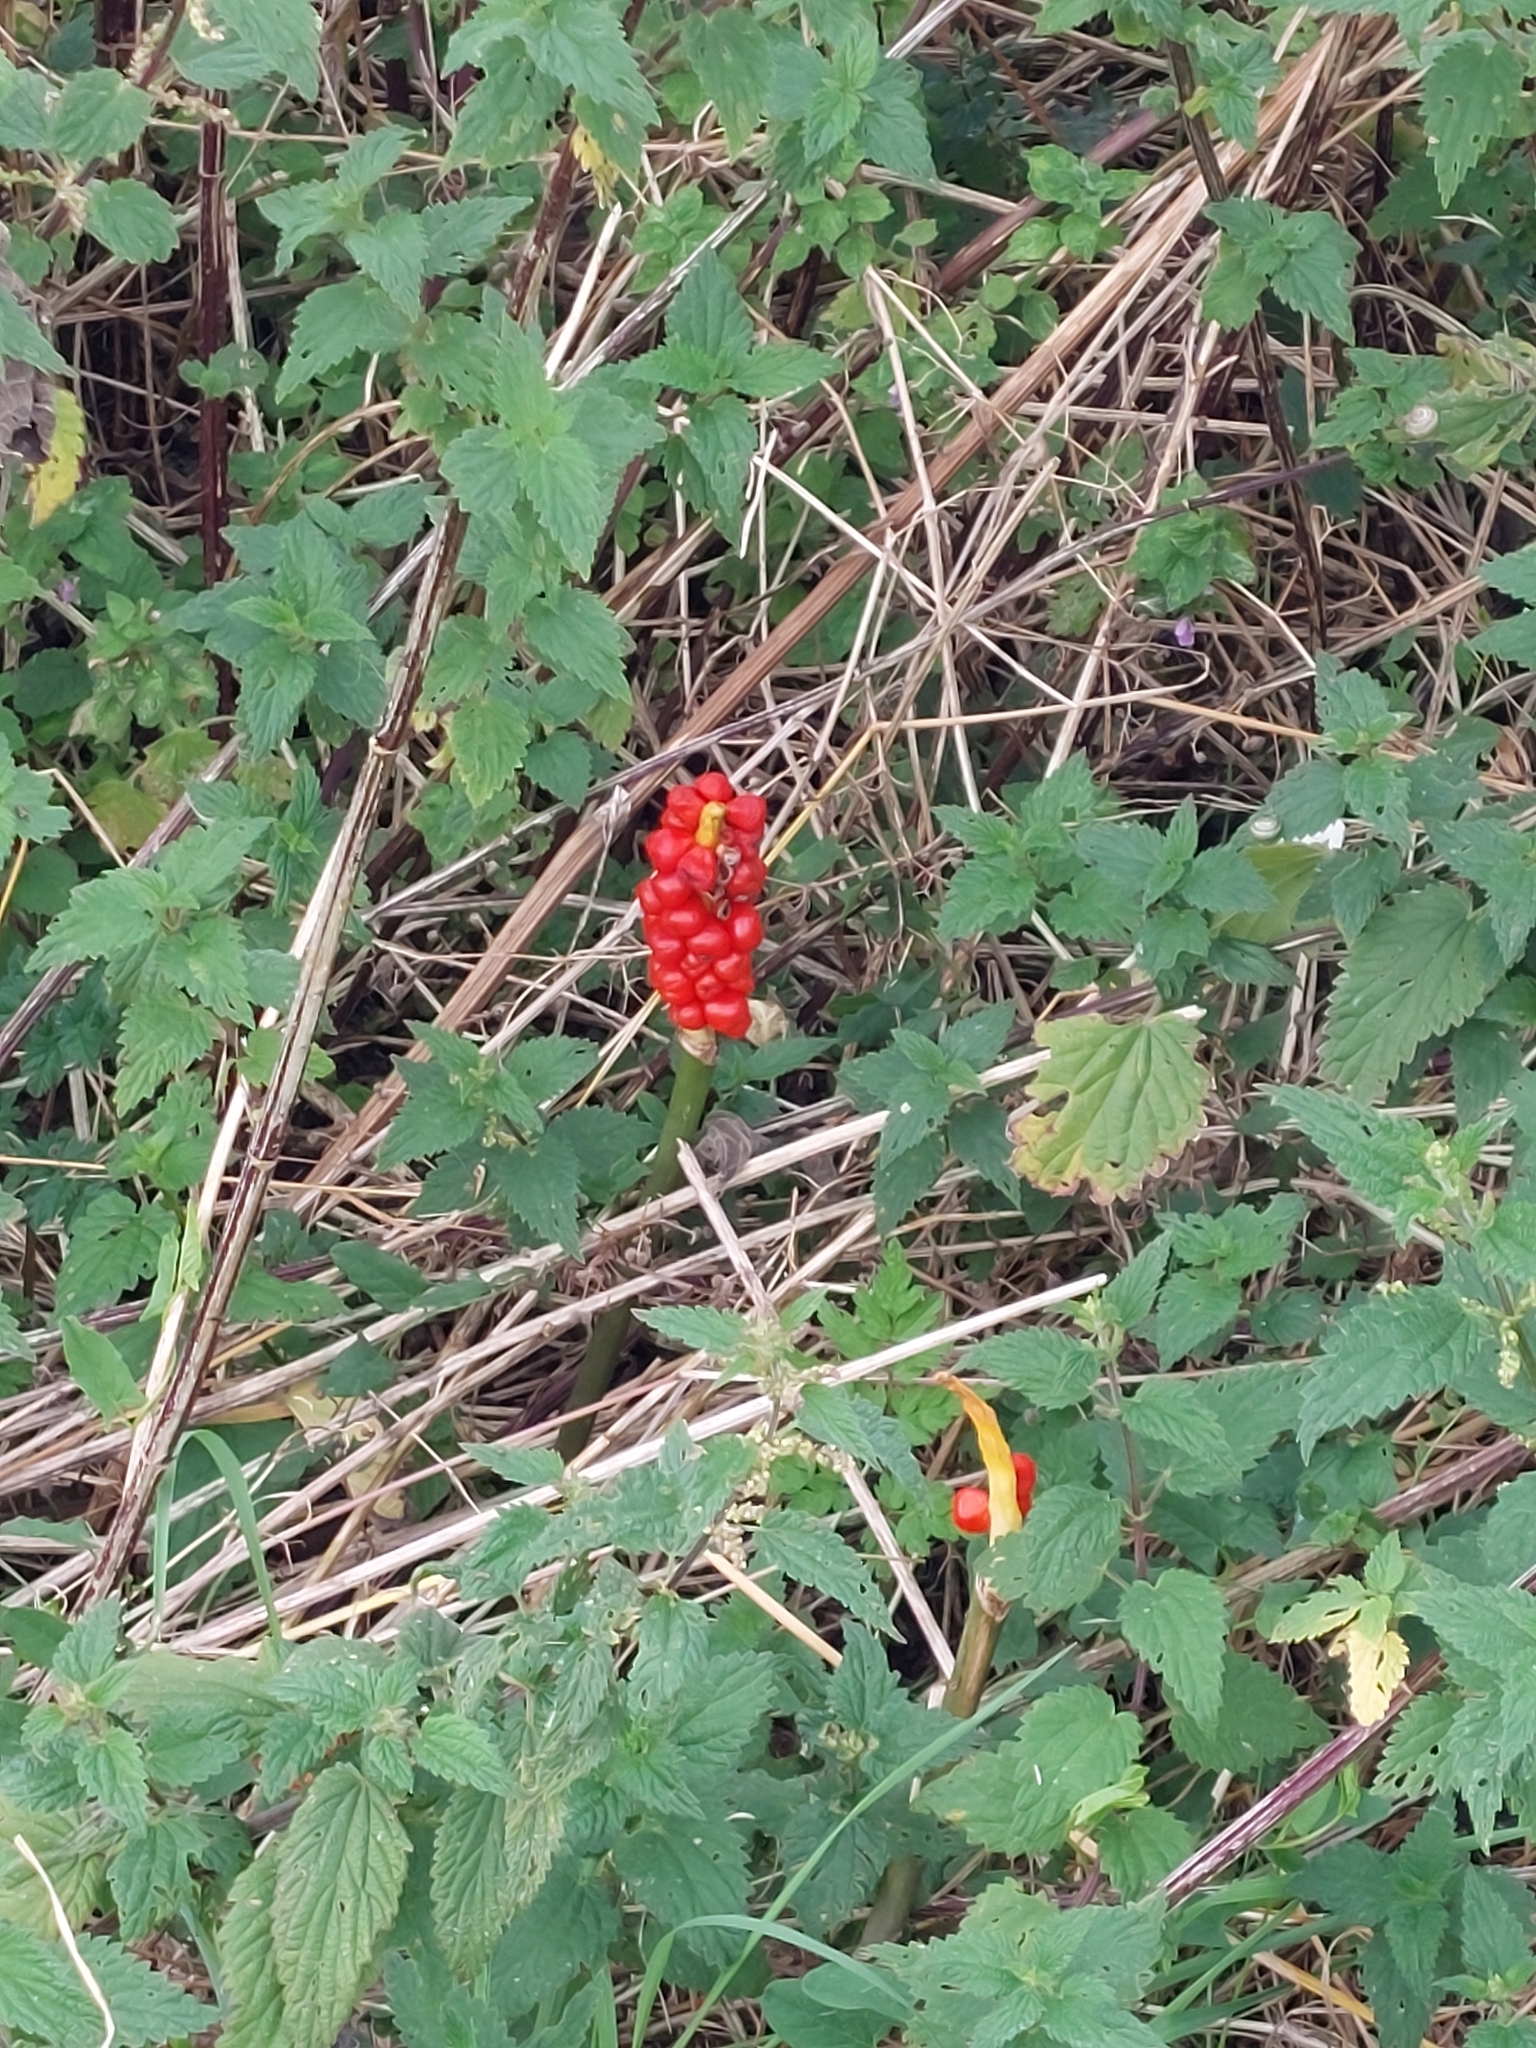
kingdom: Plantae
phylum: Tracheophyta
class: Liliopsida
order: Alismatales
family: Araceae
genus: Arum
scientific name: Arum maculatum
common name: Lords-and-ladies
